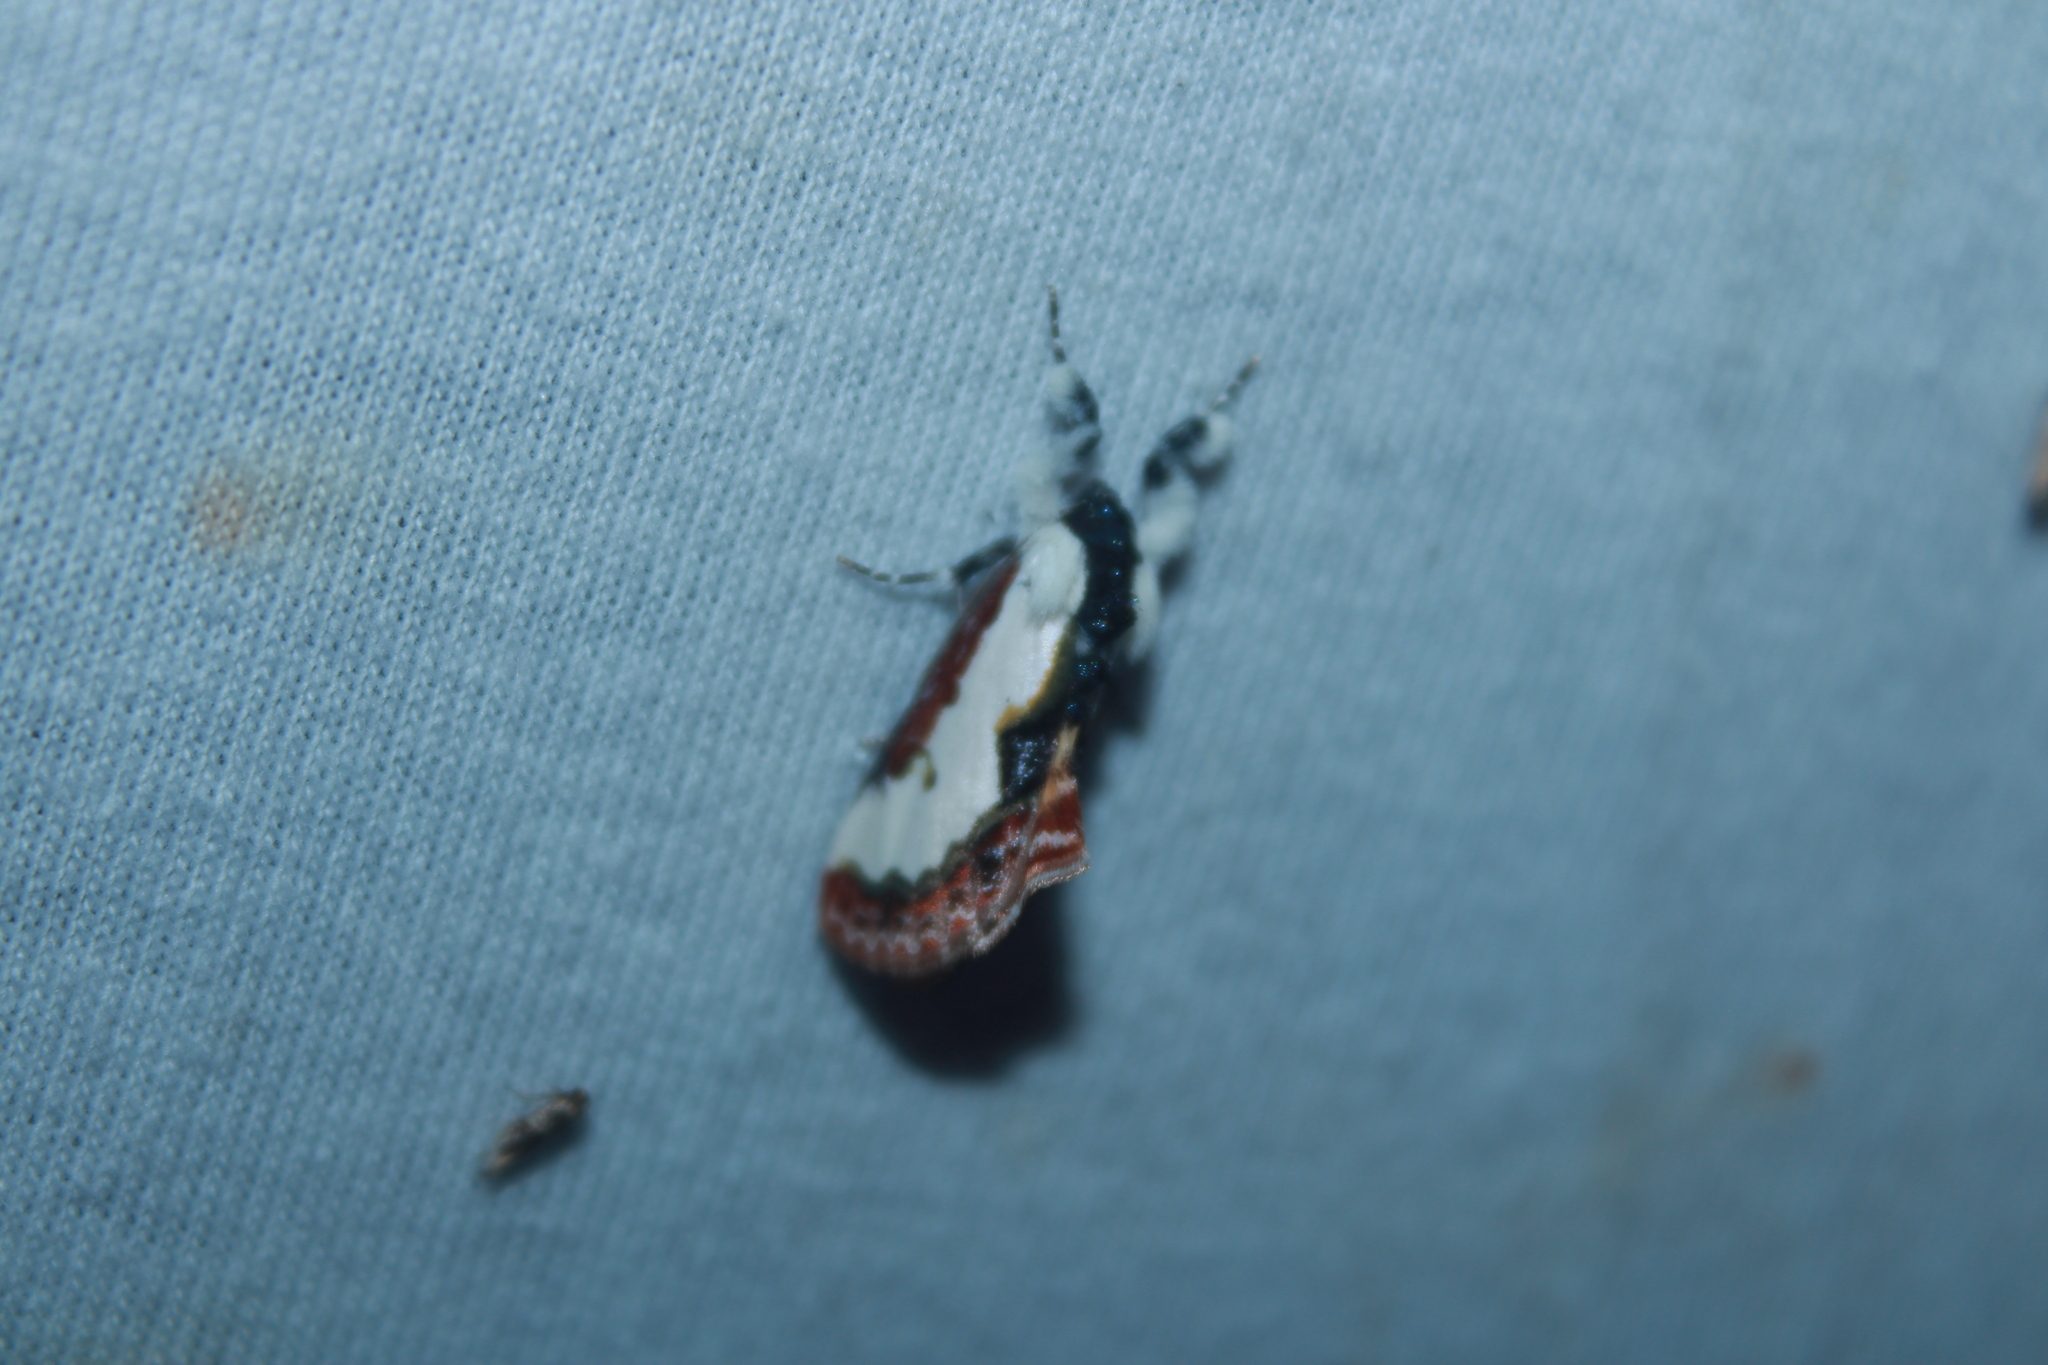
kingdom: Animalia
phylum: Arthropoda
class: Insecta
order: Lepidoptera
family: Noctuidae
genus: Eudryas
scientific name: Eudryas unio
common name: Pearly wood-nymph
